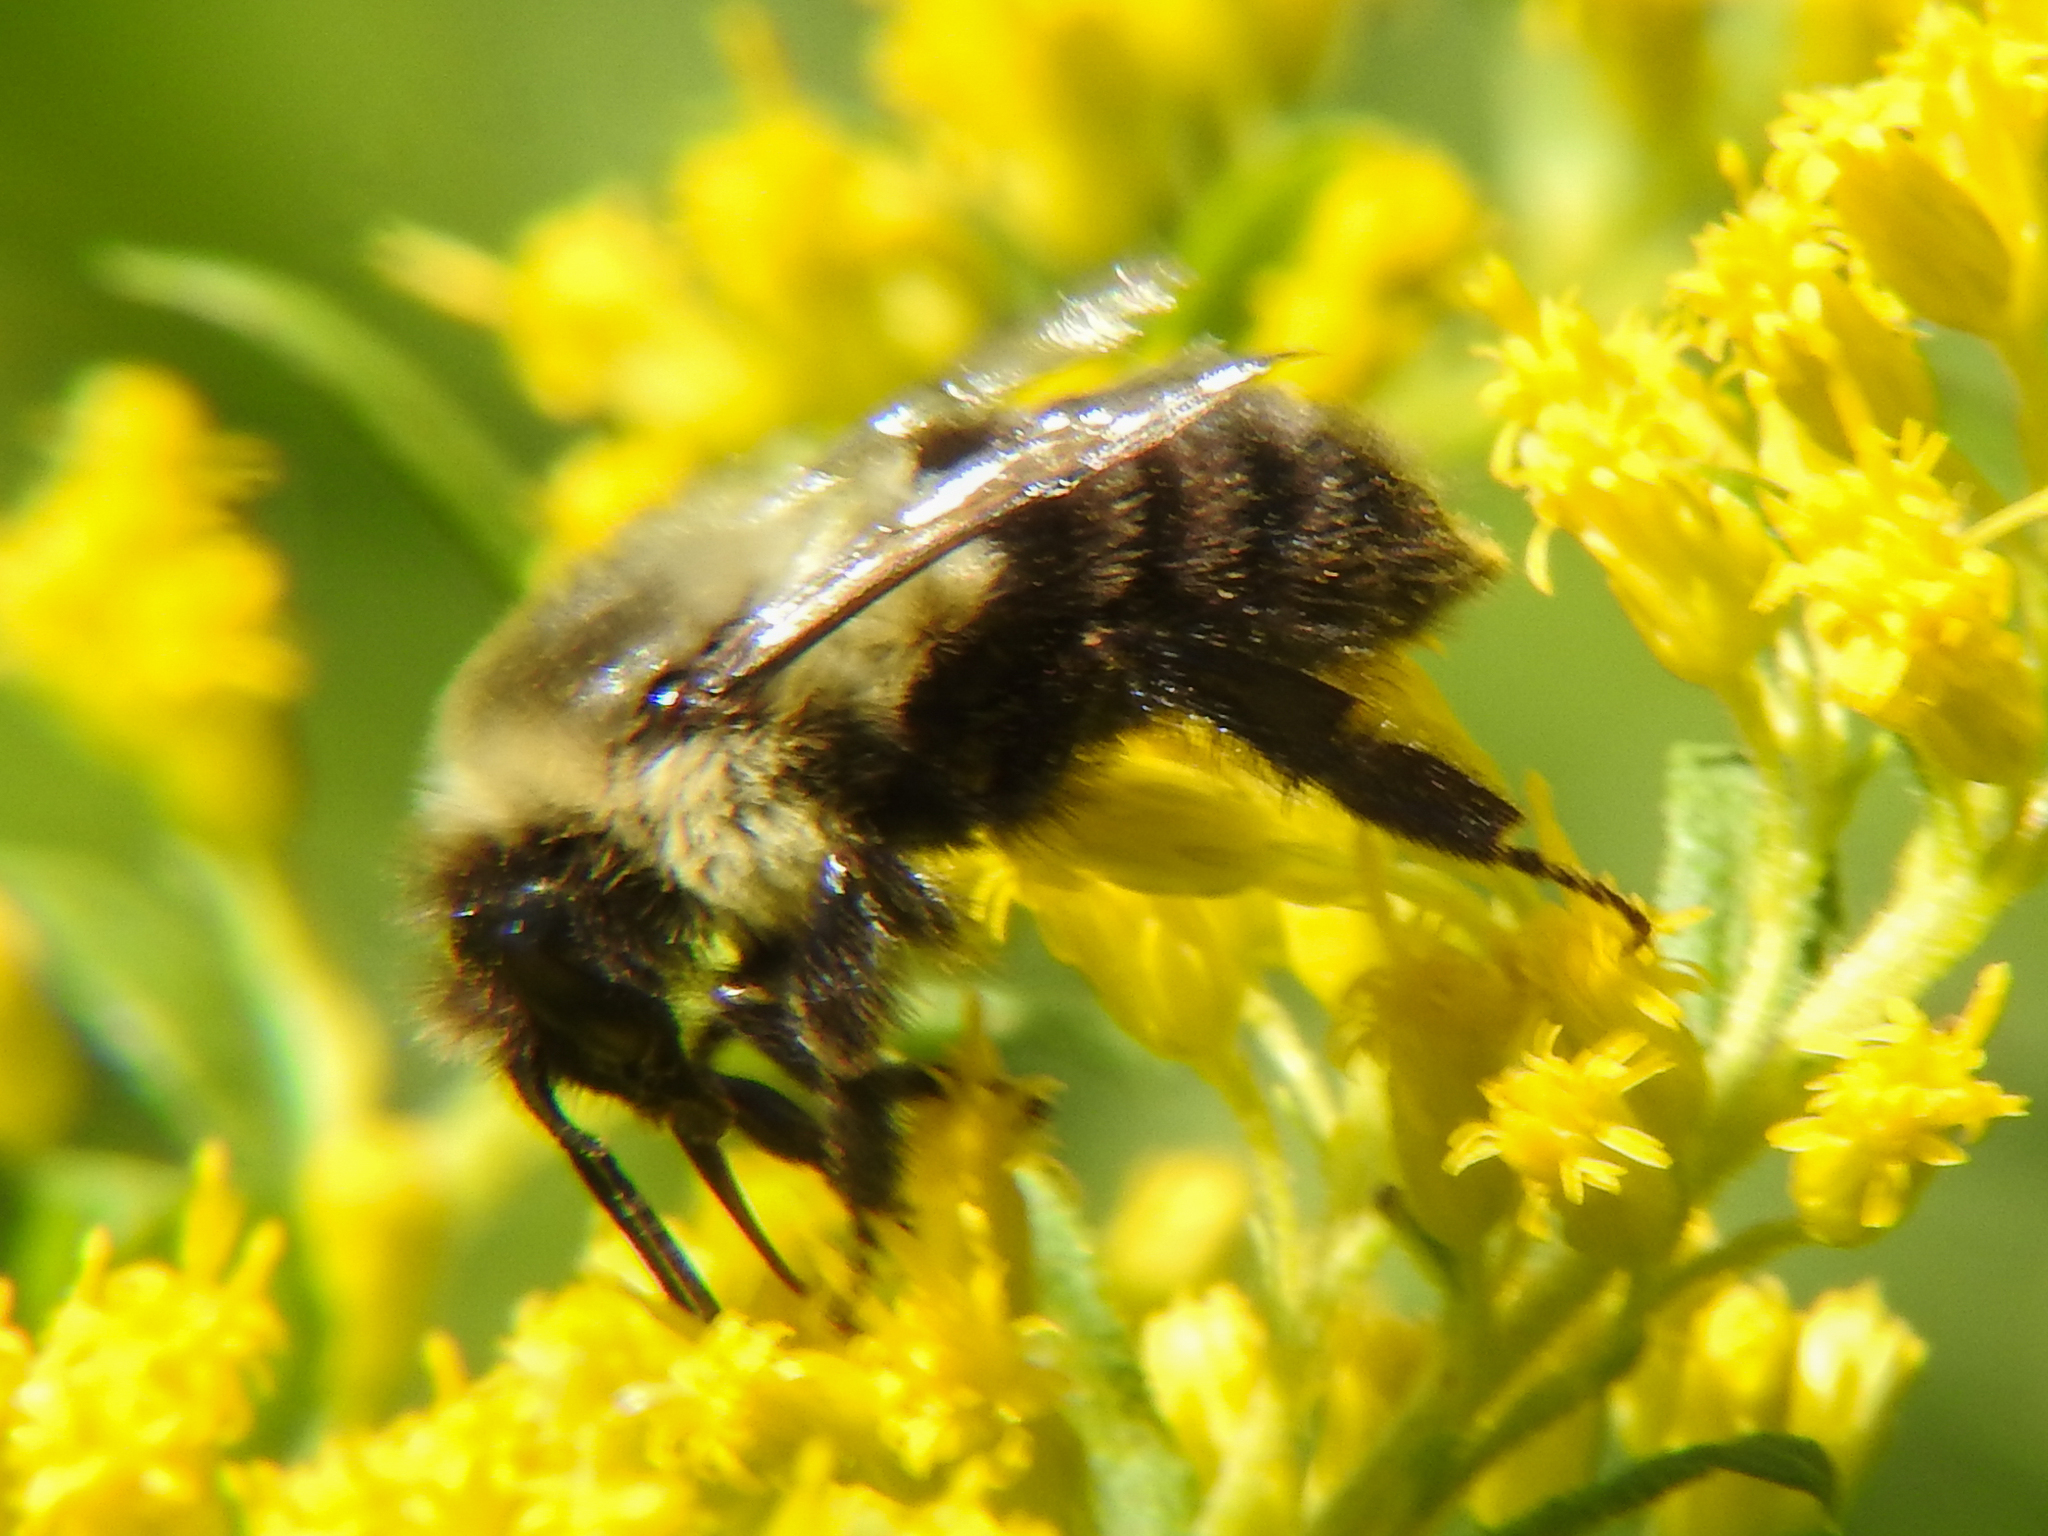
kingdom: Animalia
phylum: Arthropoda
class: Insecta
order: Hymenoptera
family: Apidae
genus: Bombus
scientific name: Bombus impatiens
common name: Common eastern bumble bee
